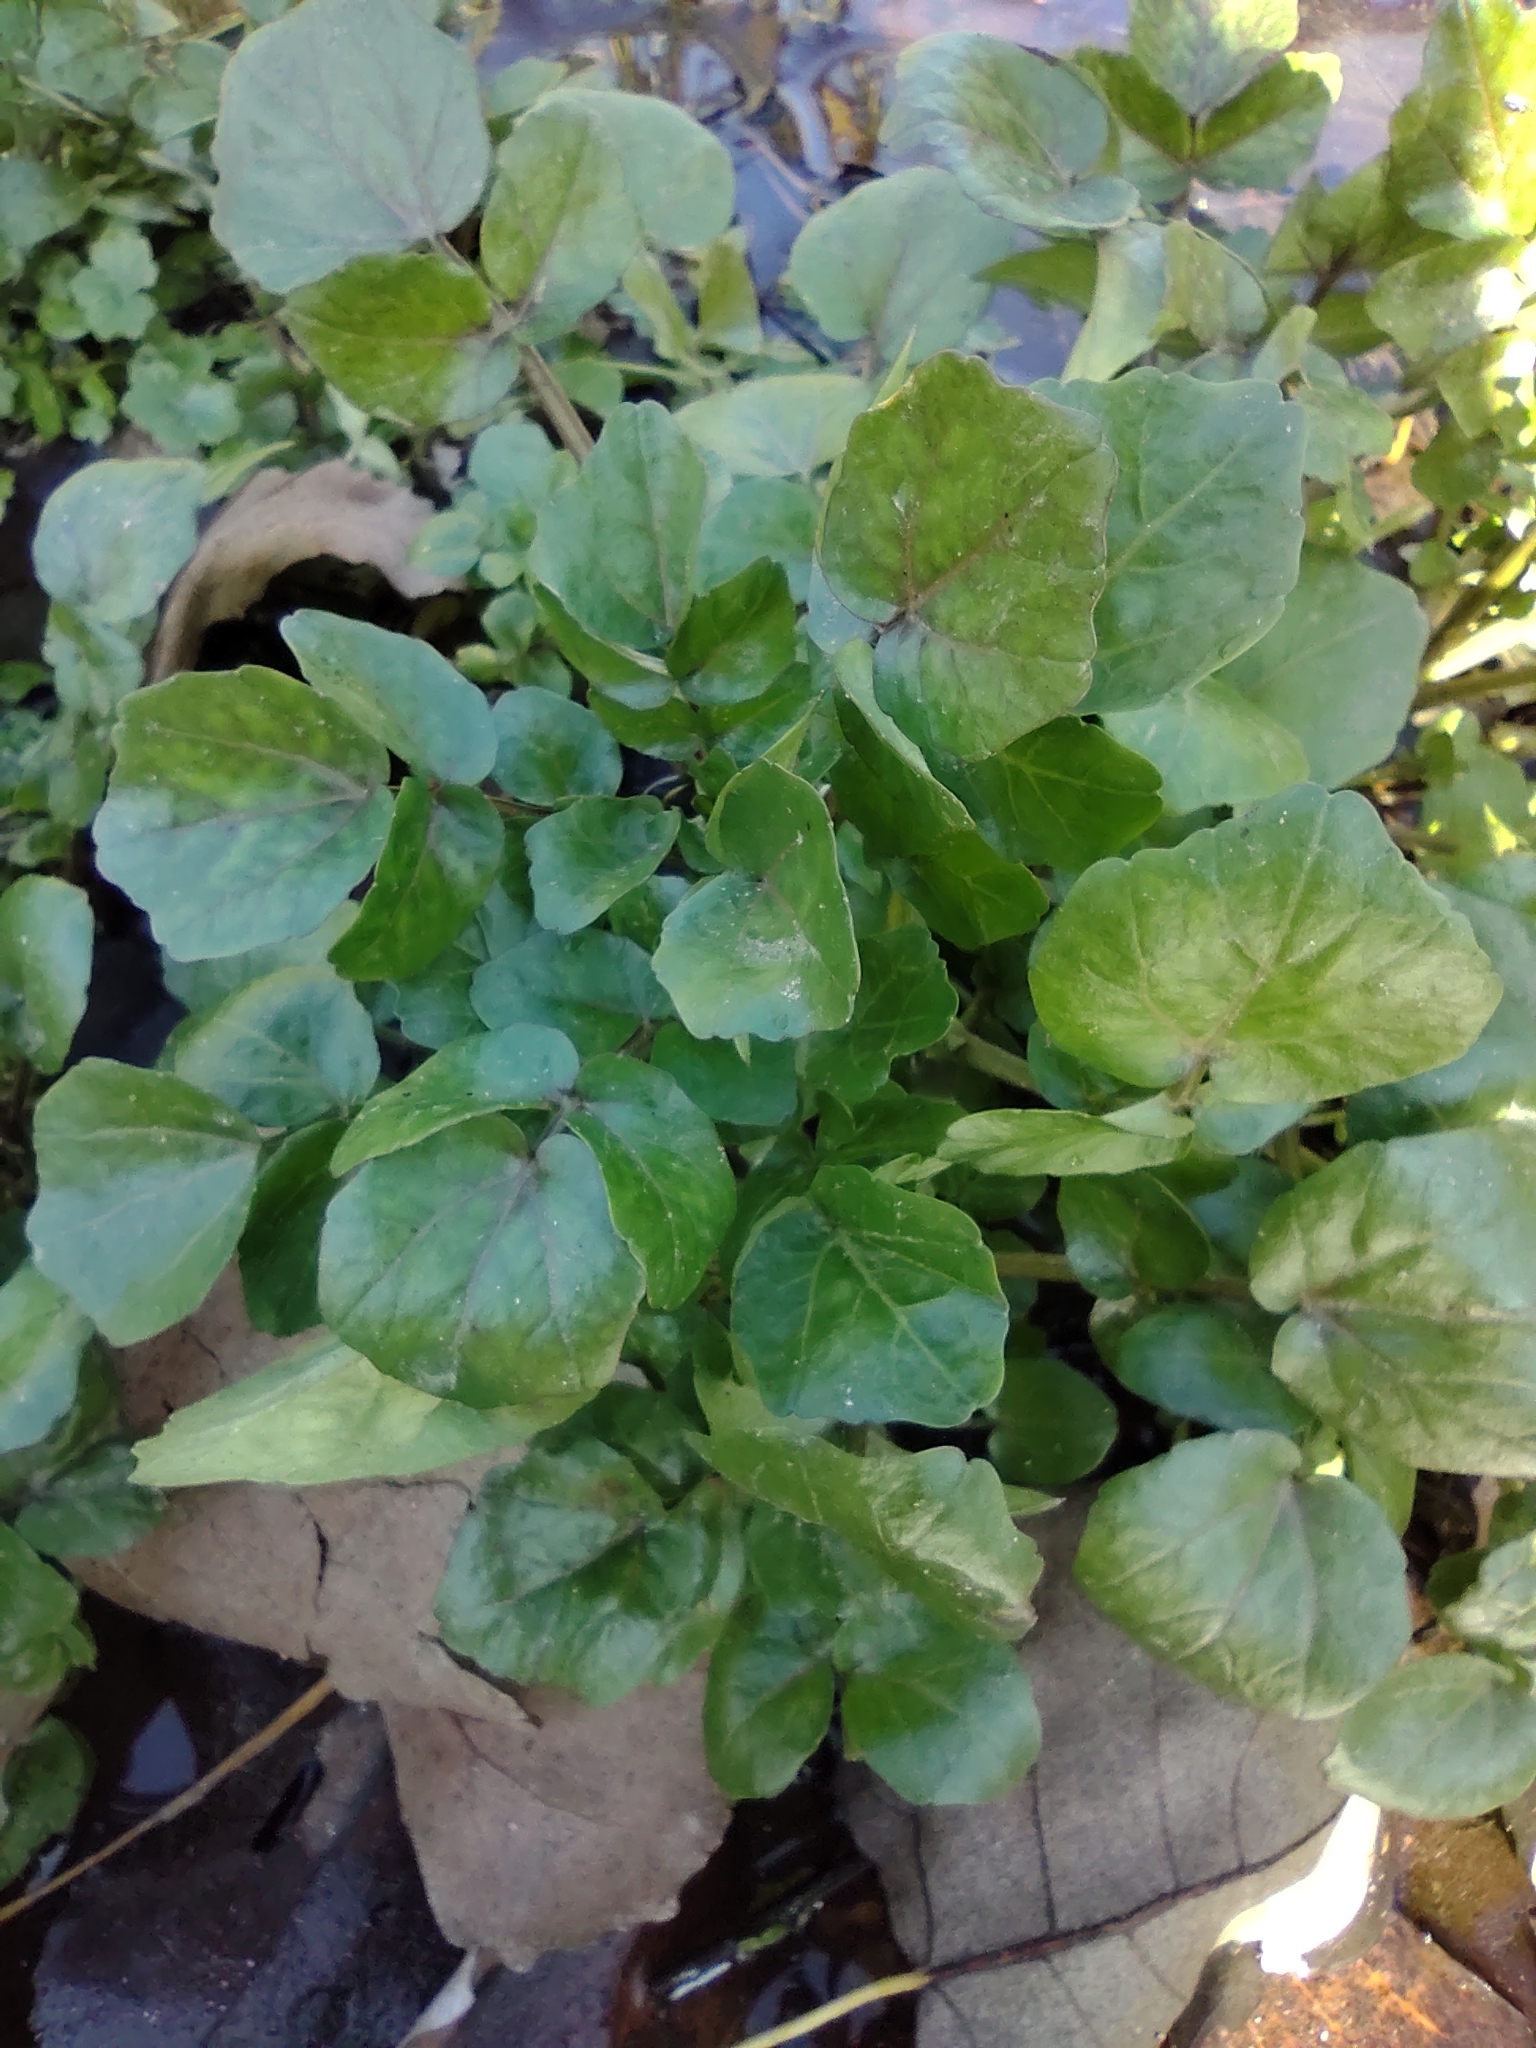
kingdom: Plantae
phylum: Tracheophyta
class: Magnoliopsida
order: Brassicales
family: Brassicaceae
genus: Nasturtium
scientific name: Nasturtium officinale
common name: Watercress
